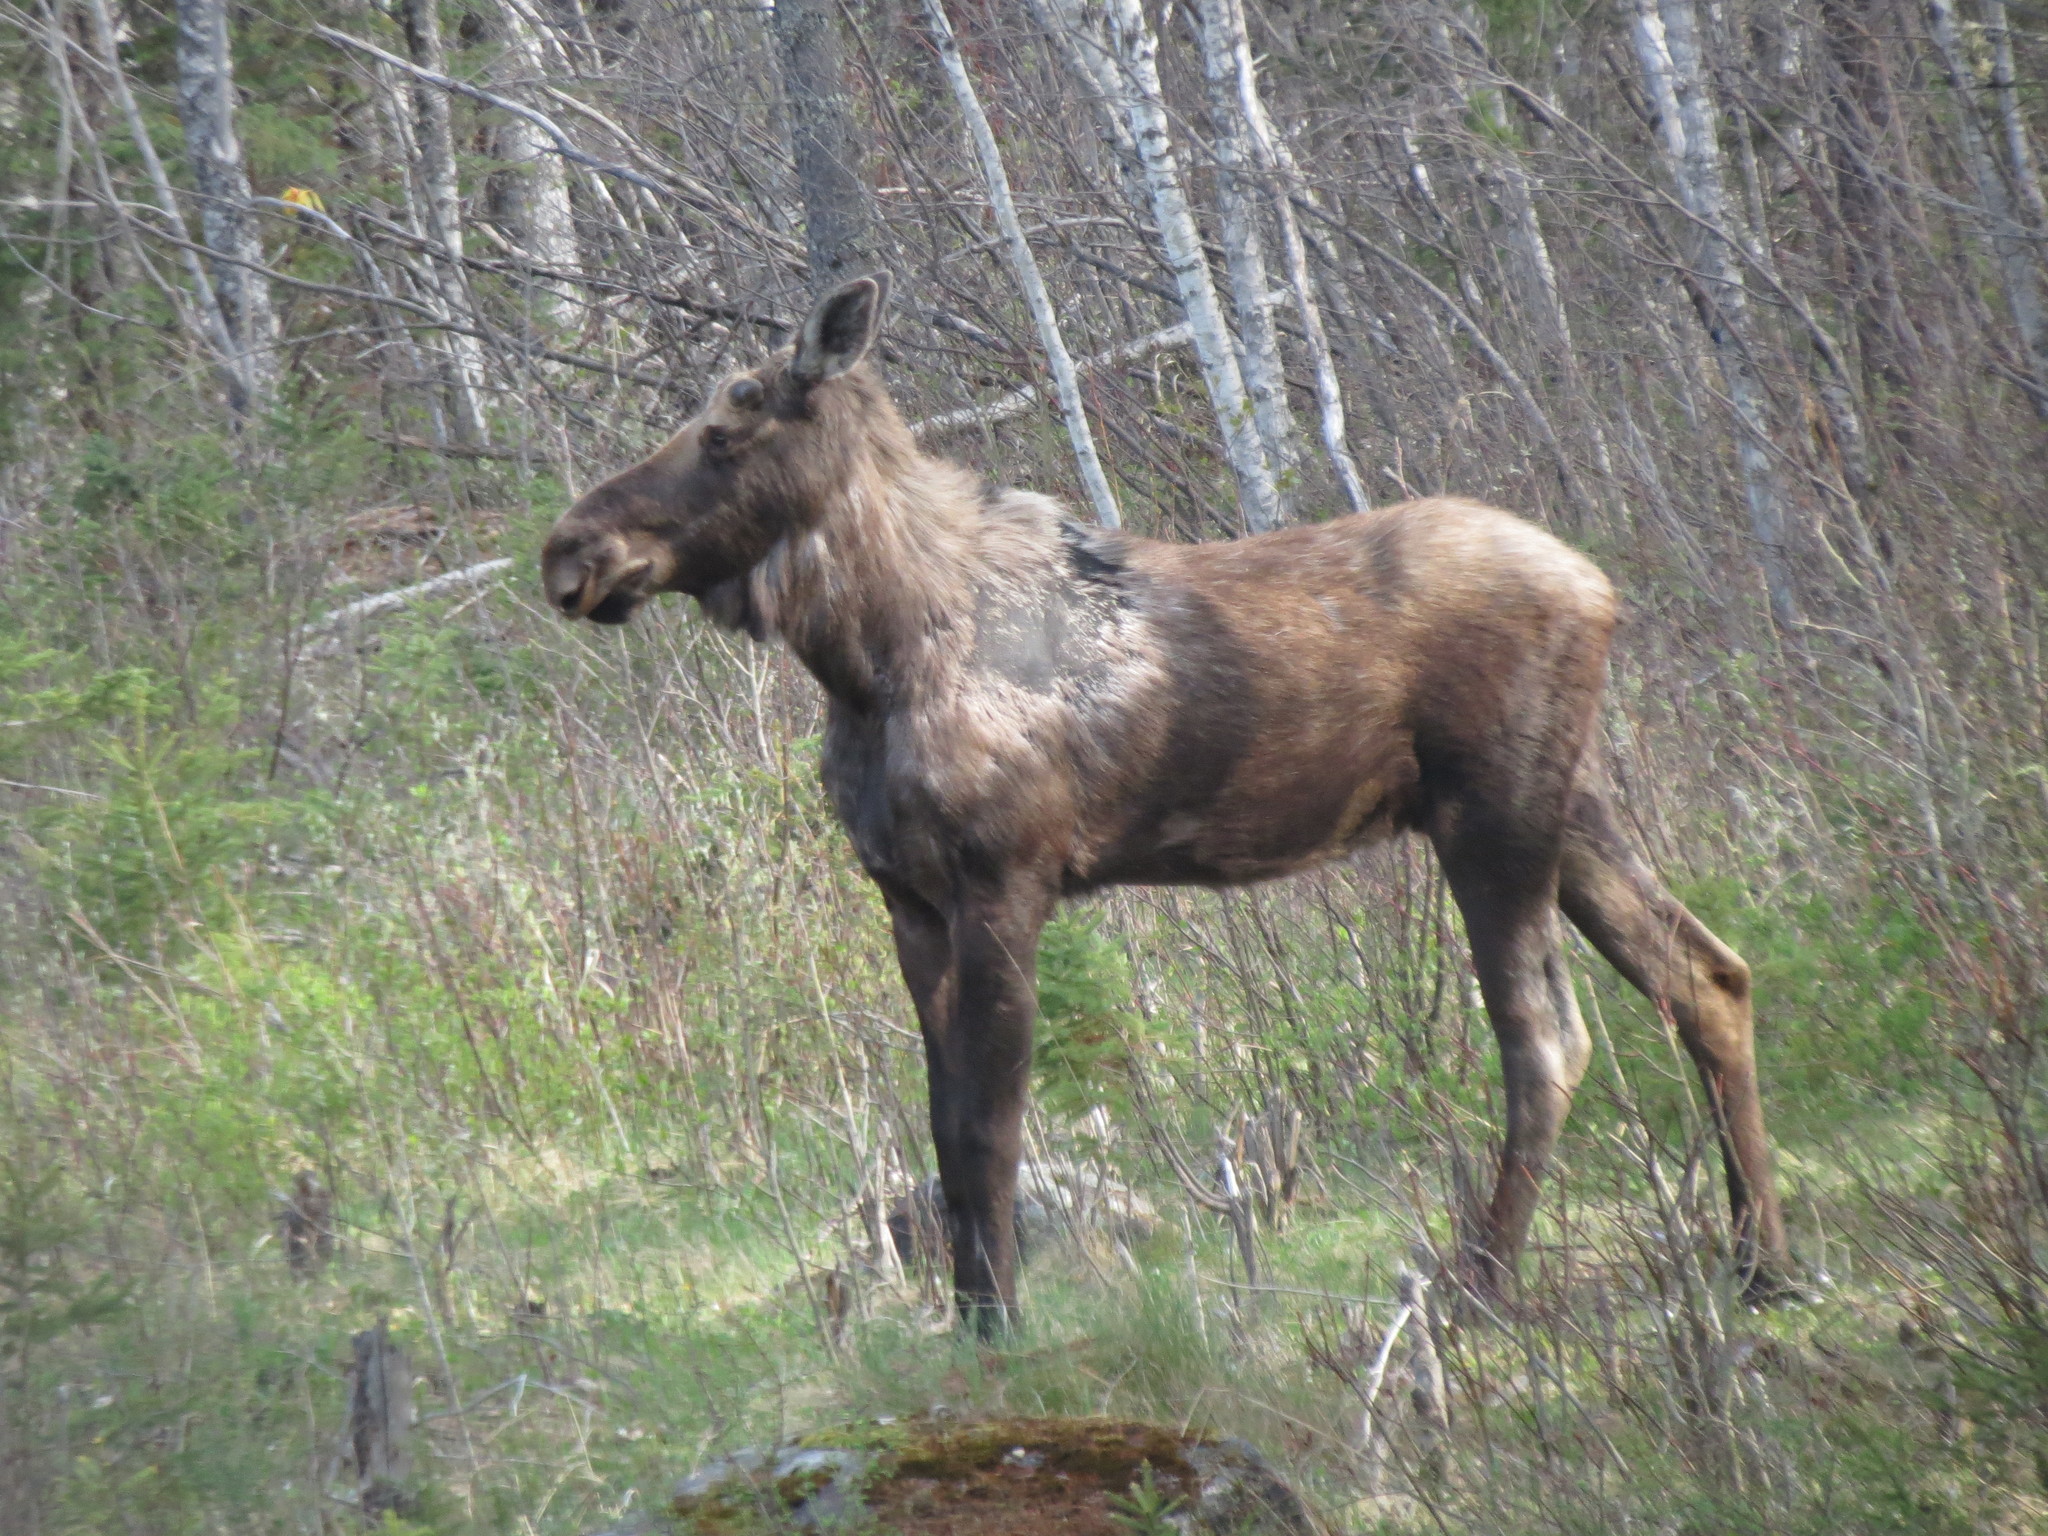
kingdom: Animalia
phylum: Chordata
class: Mammalia
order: Artiodactyla
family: Cervidae
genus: Alces
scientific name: Alces alces
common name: Moose
